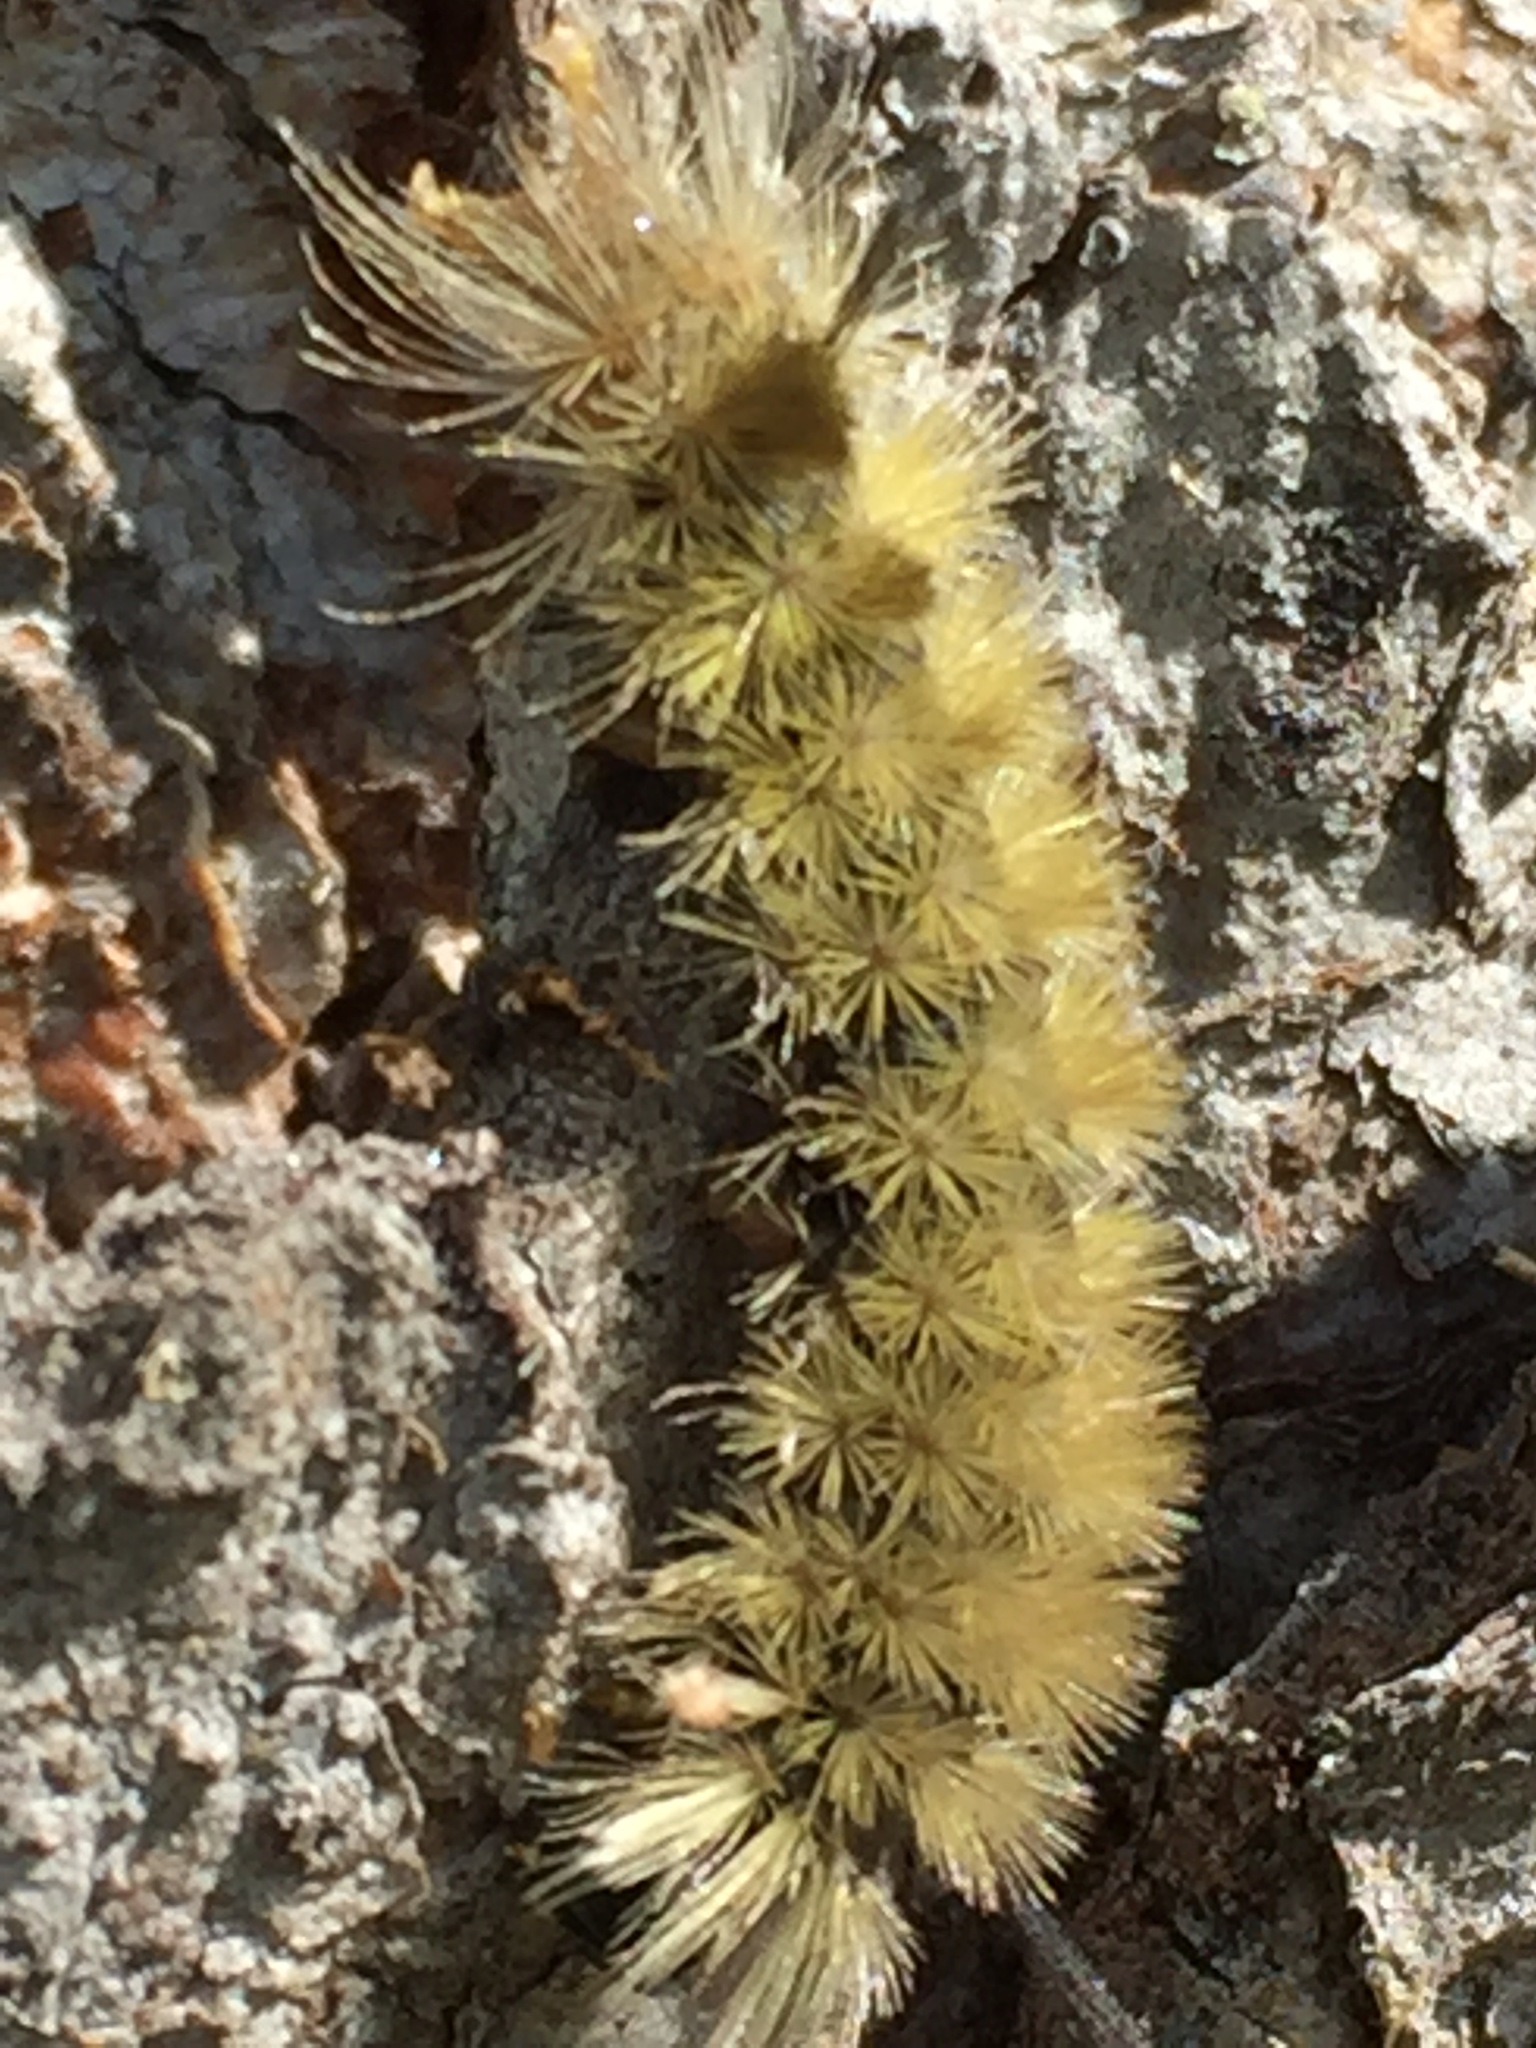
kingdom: Animalia
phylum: Arthropoda
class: Insecta
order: Lepidoptera
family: Erebidae
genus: Halysidota
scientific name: Halysidota tessellaris
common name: Banded tussock moth
